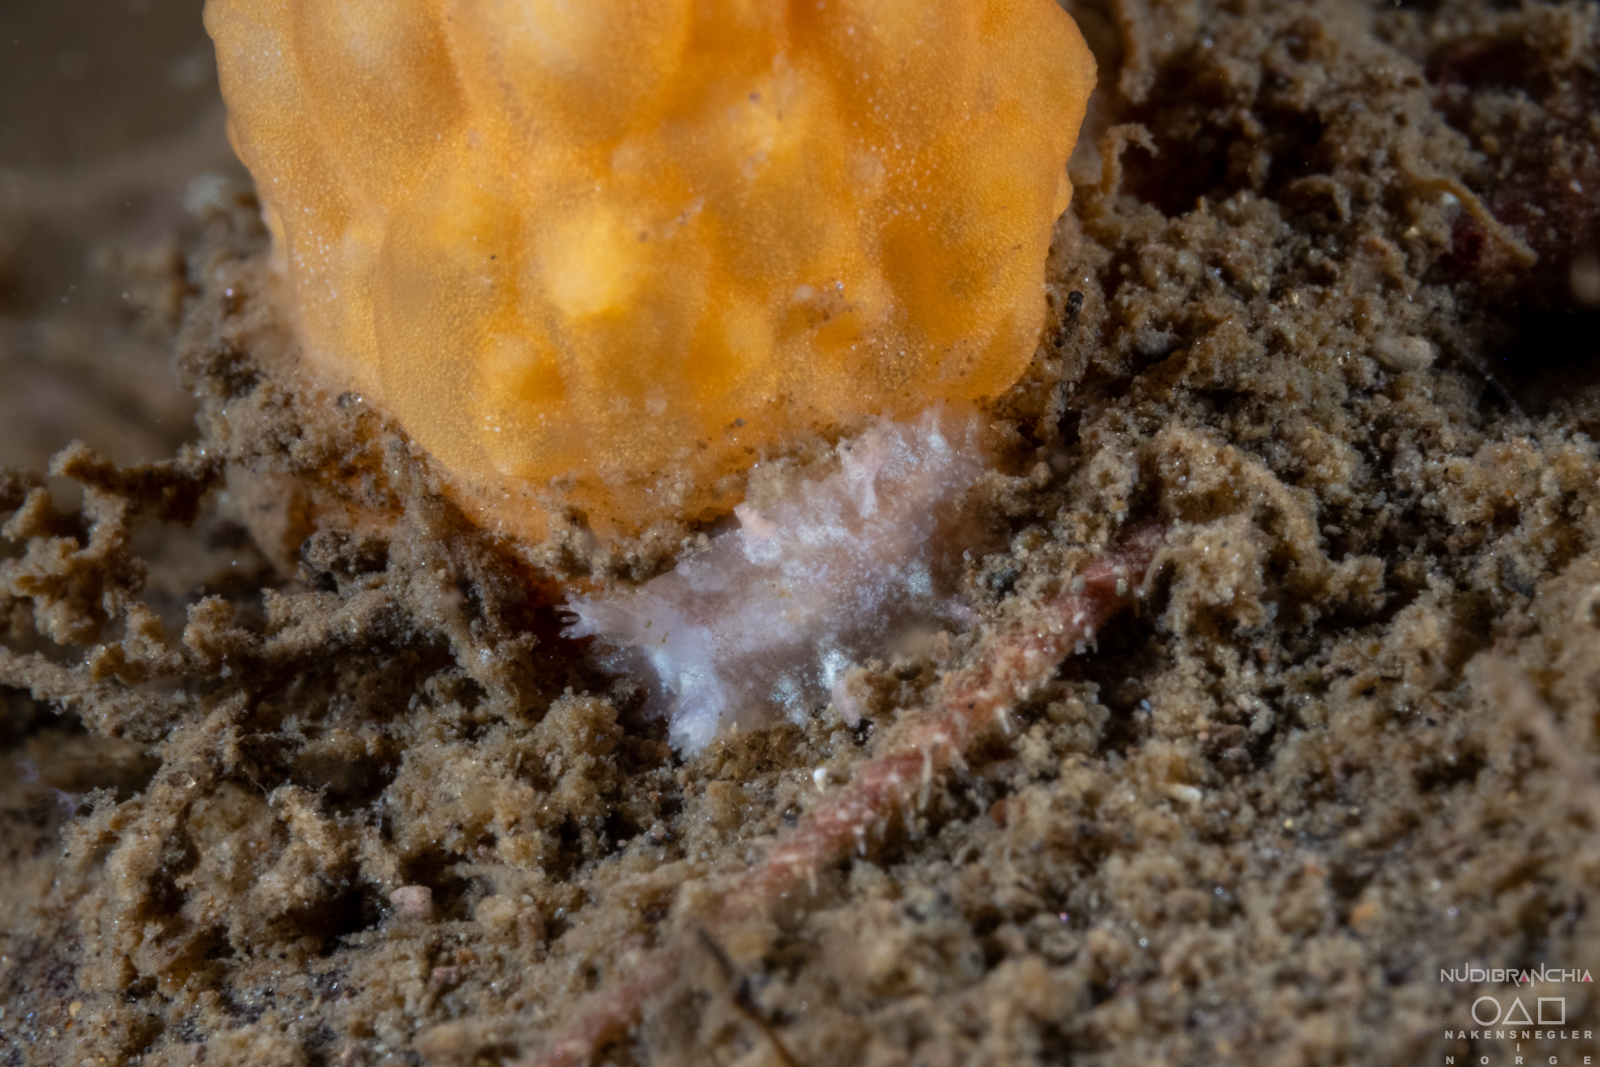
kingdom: Animalia
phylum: Mollusca
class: Gastropoda
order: Nudibranchia
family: Tritoniidae
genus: Duvaucelia
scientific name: Duvaucelia plebeia
